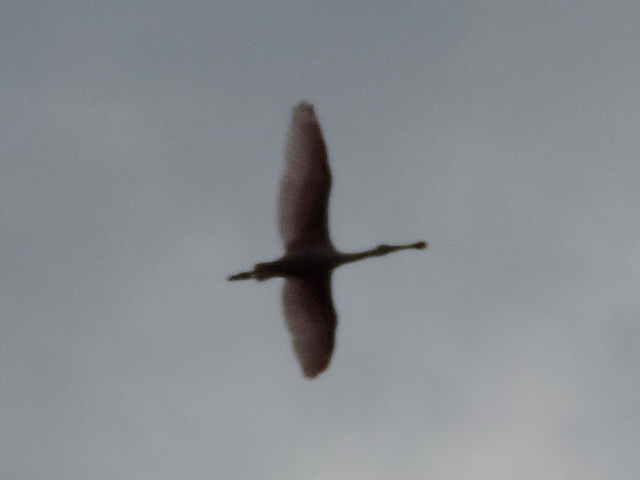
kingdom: Animalia
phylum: Chordata
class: Aves
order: Pelecaniformes
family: Threskiornithidae
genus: Platalea
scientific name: Platalea ajaja
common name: Roseate spoonbill
